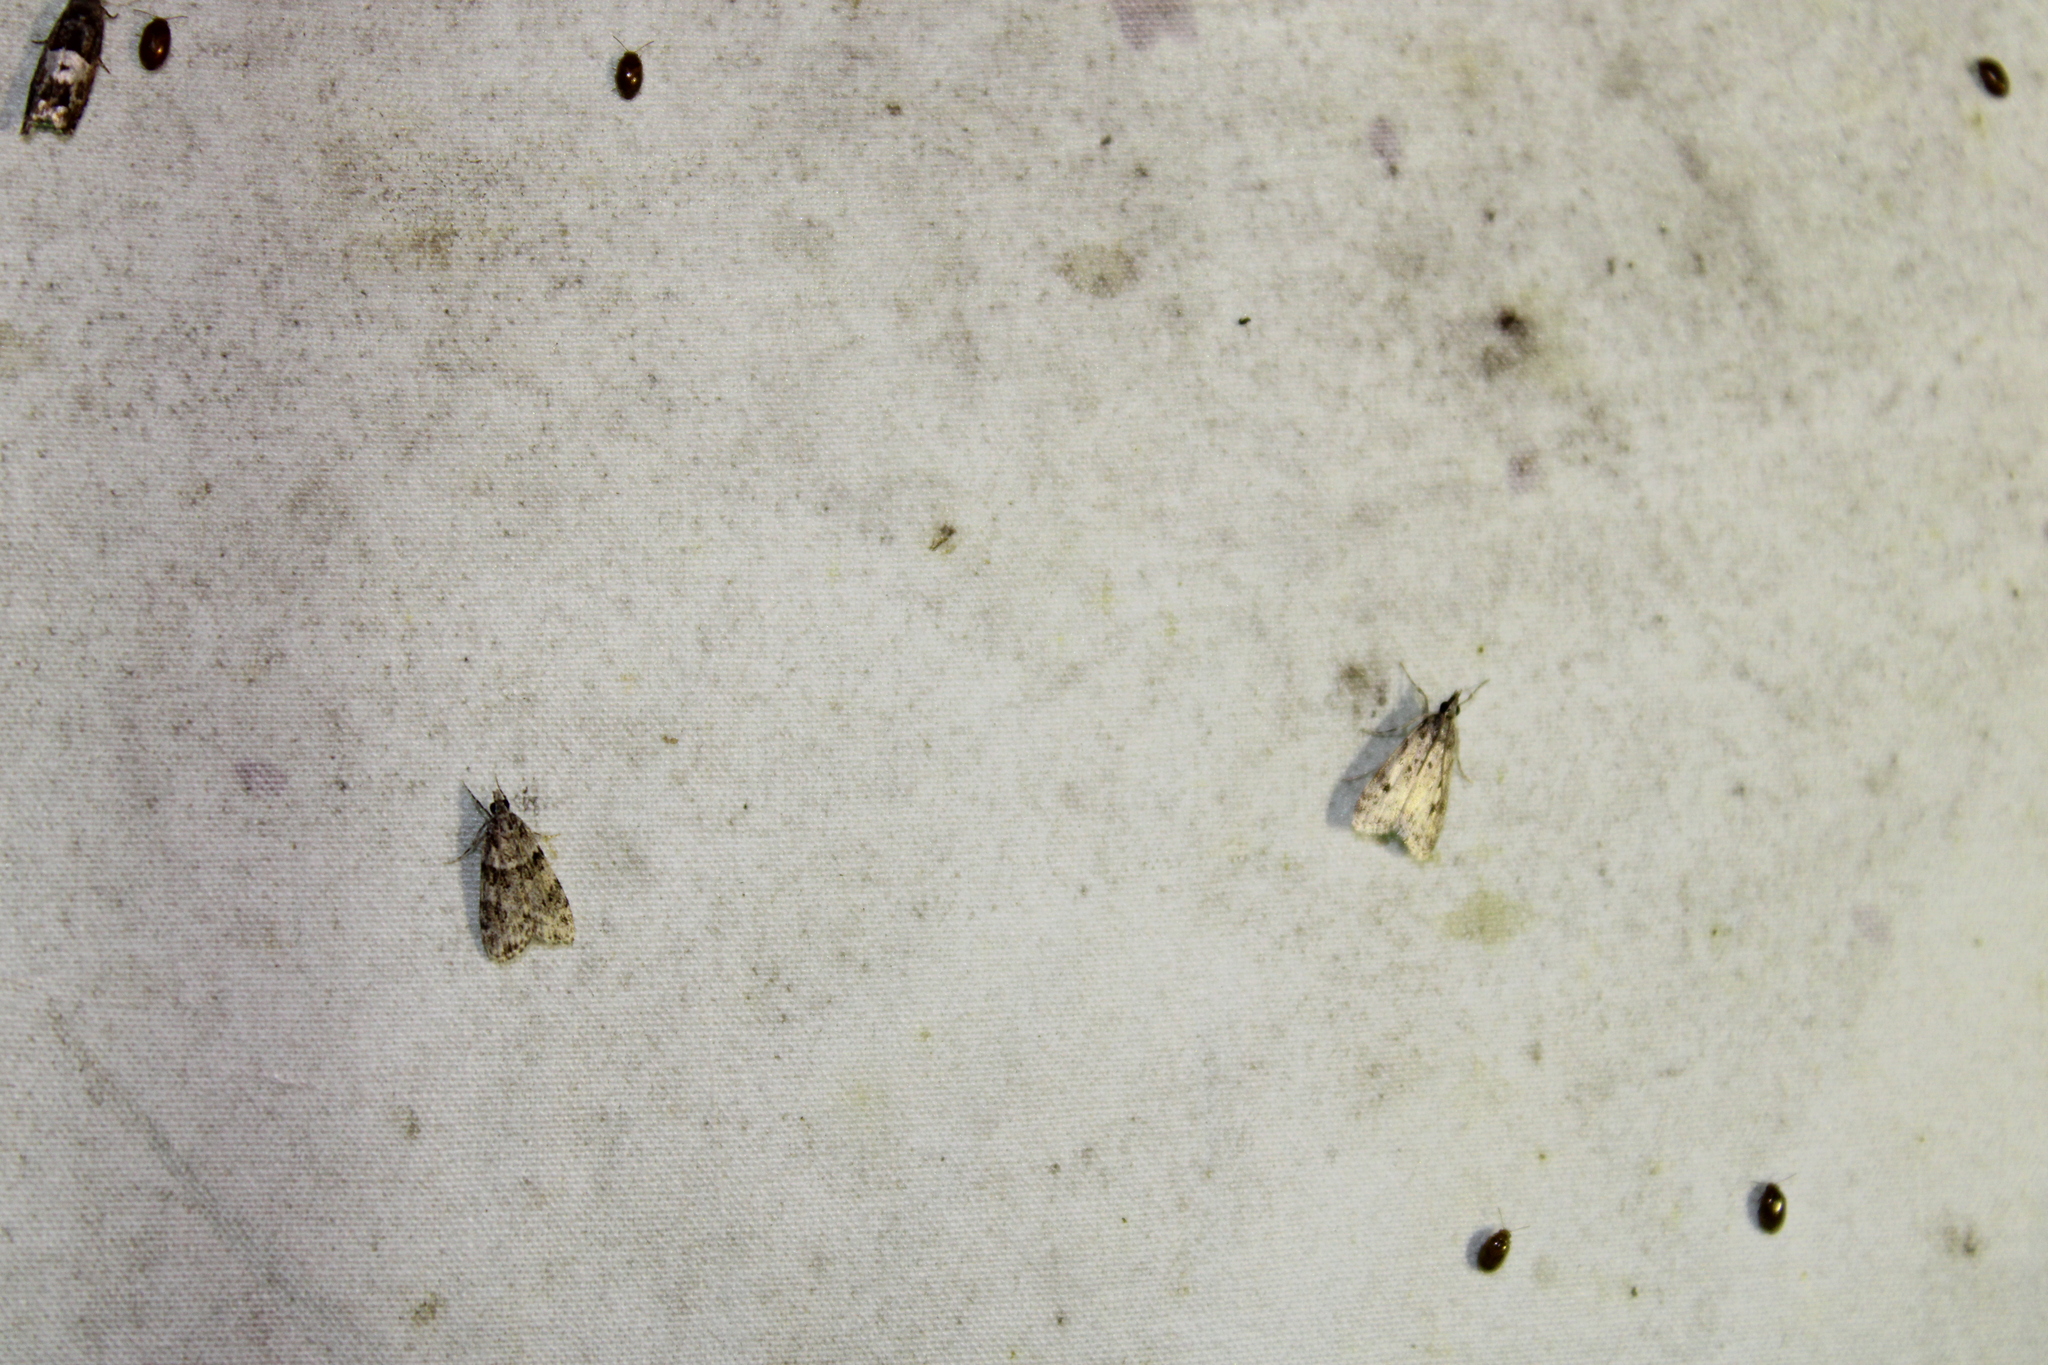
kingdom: Animalia
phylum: Arthropoda
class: Insecta
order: Lepidoptera
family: Crambidae
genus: Scoparia
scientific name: Scoparia biplagialis
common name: Double-striped scoparia moth
